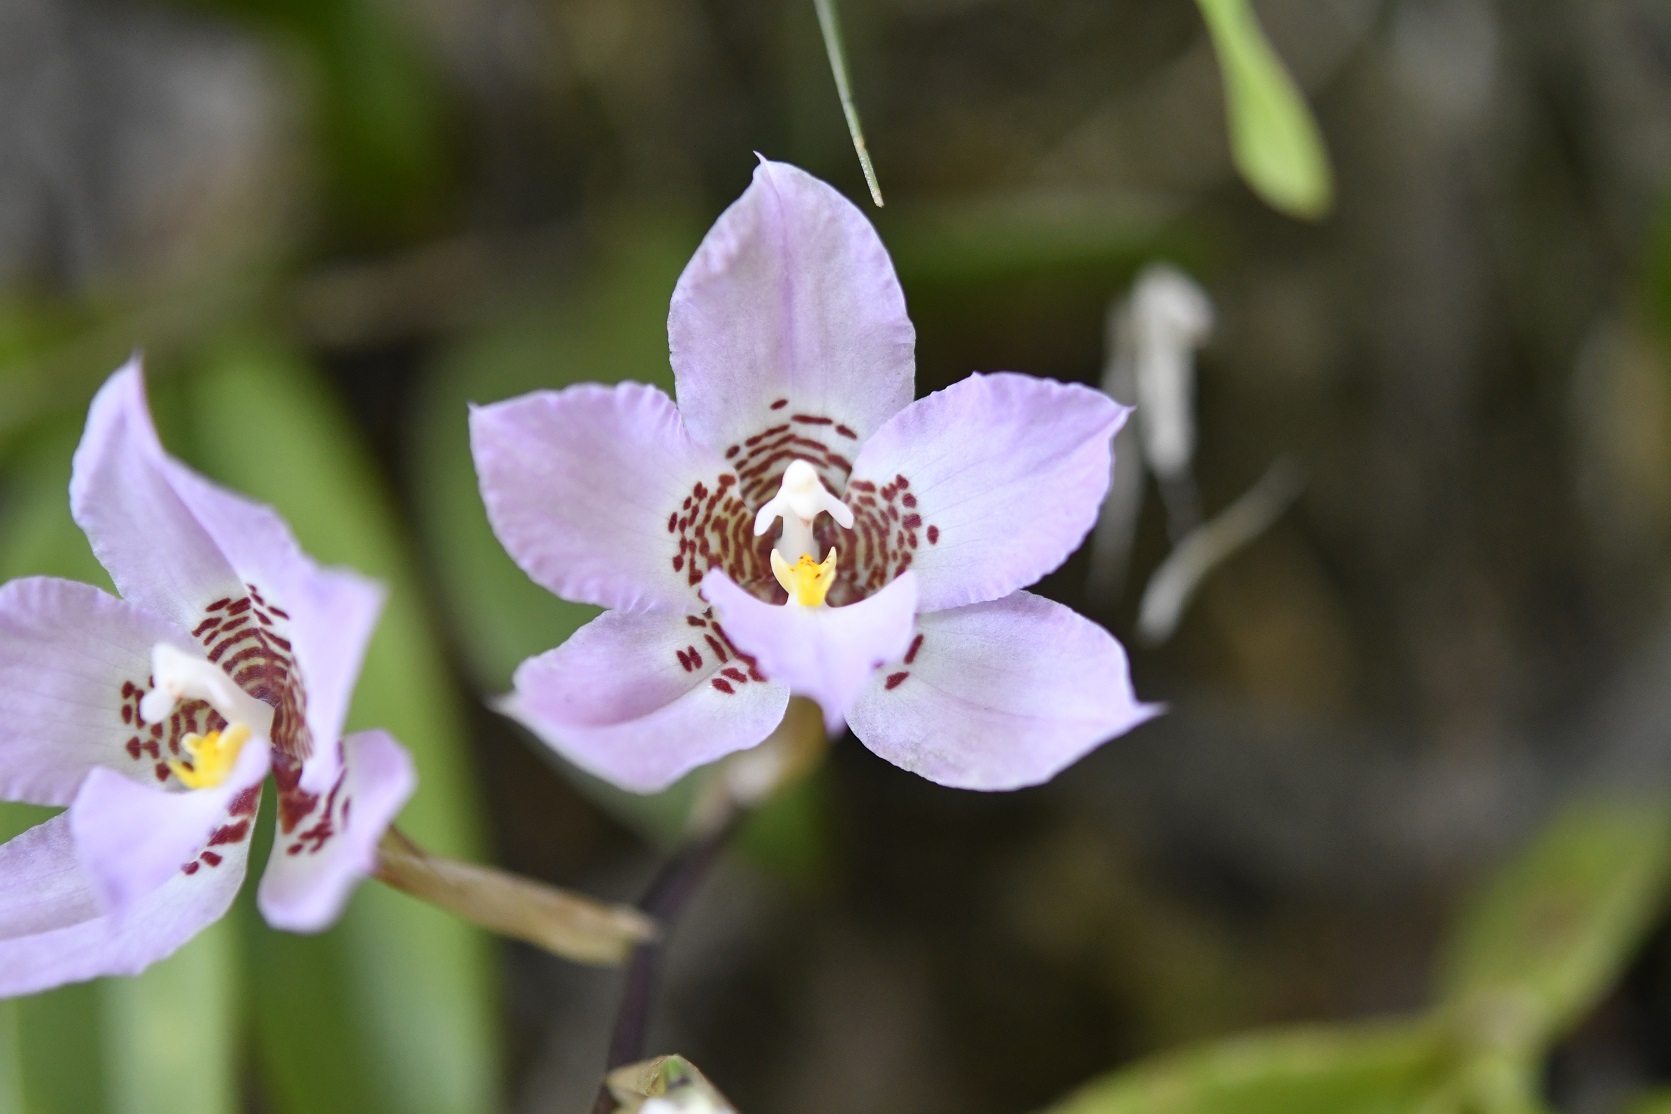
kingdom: Plantae
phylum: Tracheophyta
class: Liliopsida
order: Asparagales
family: Orchidaceae
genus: Rhynchostele
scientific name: Rhynchostele cervantesii
